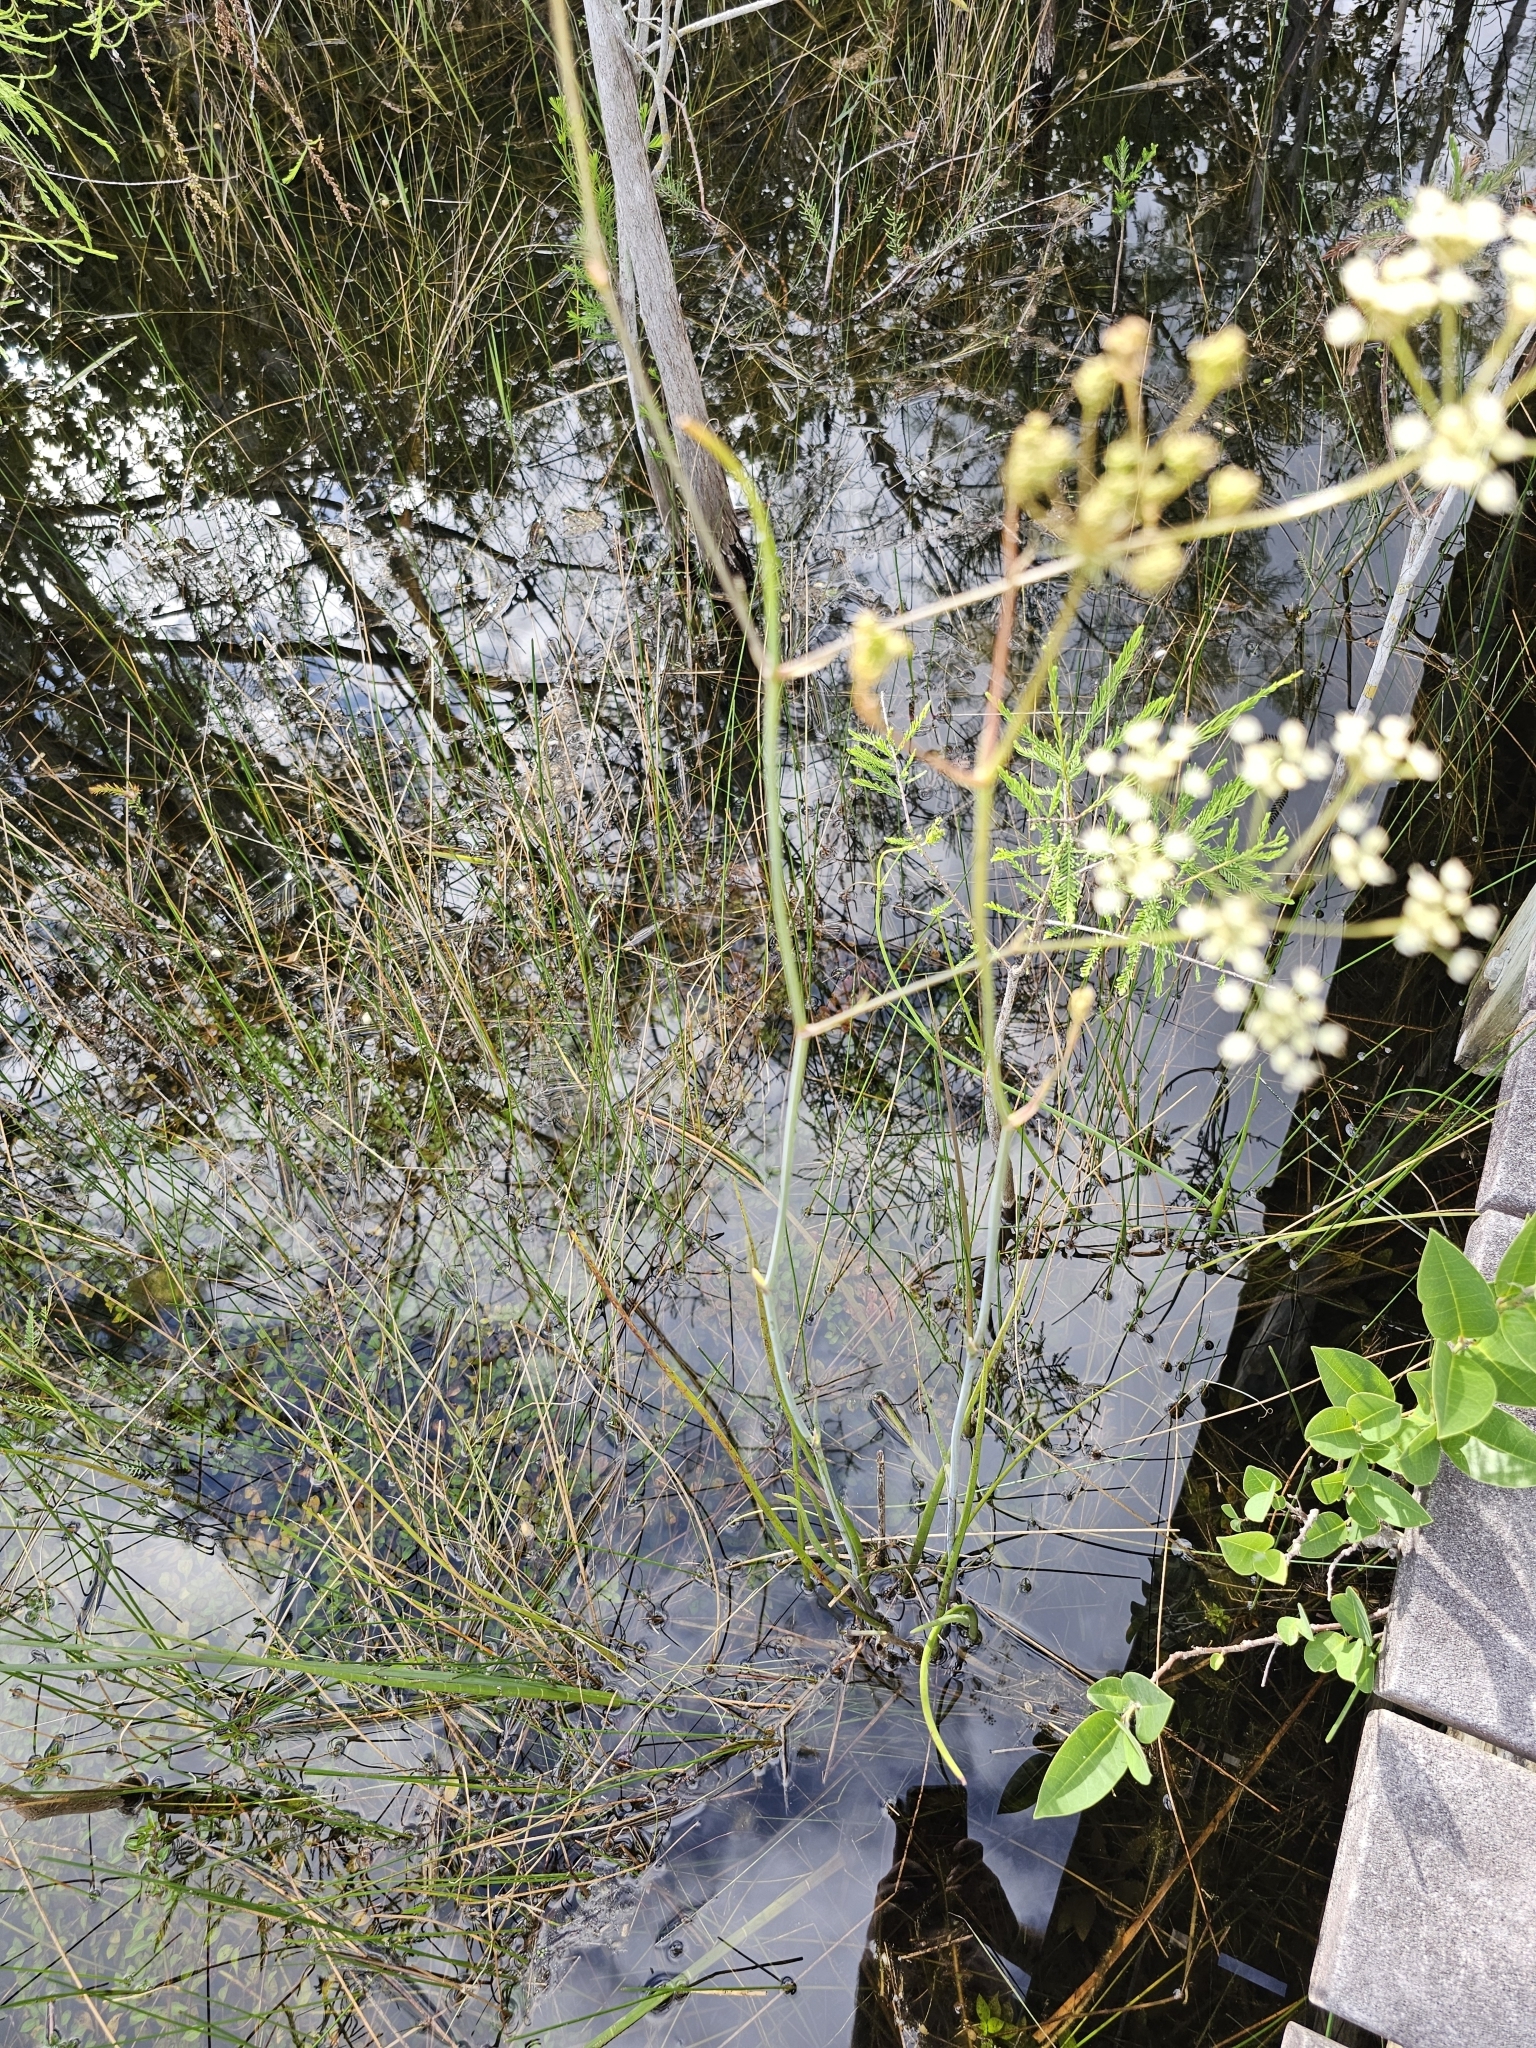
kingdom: Plantae
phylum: Tracheophyta
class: Magnoliopsida
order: Apiales
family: Apiaceae
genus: Tiedemannia
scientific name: Tiedemannia filiformis
